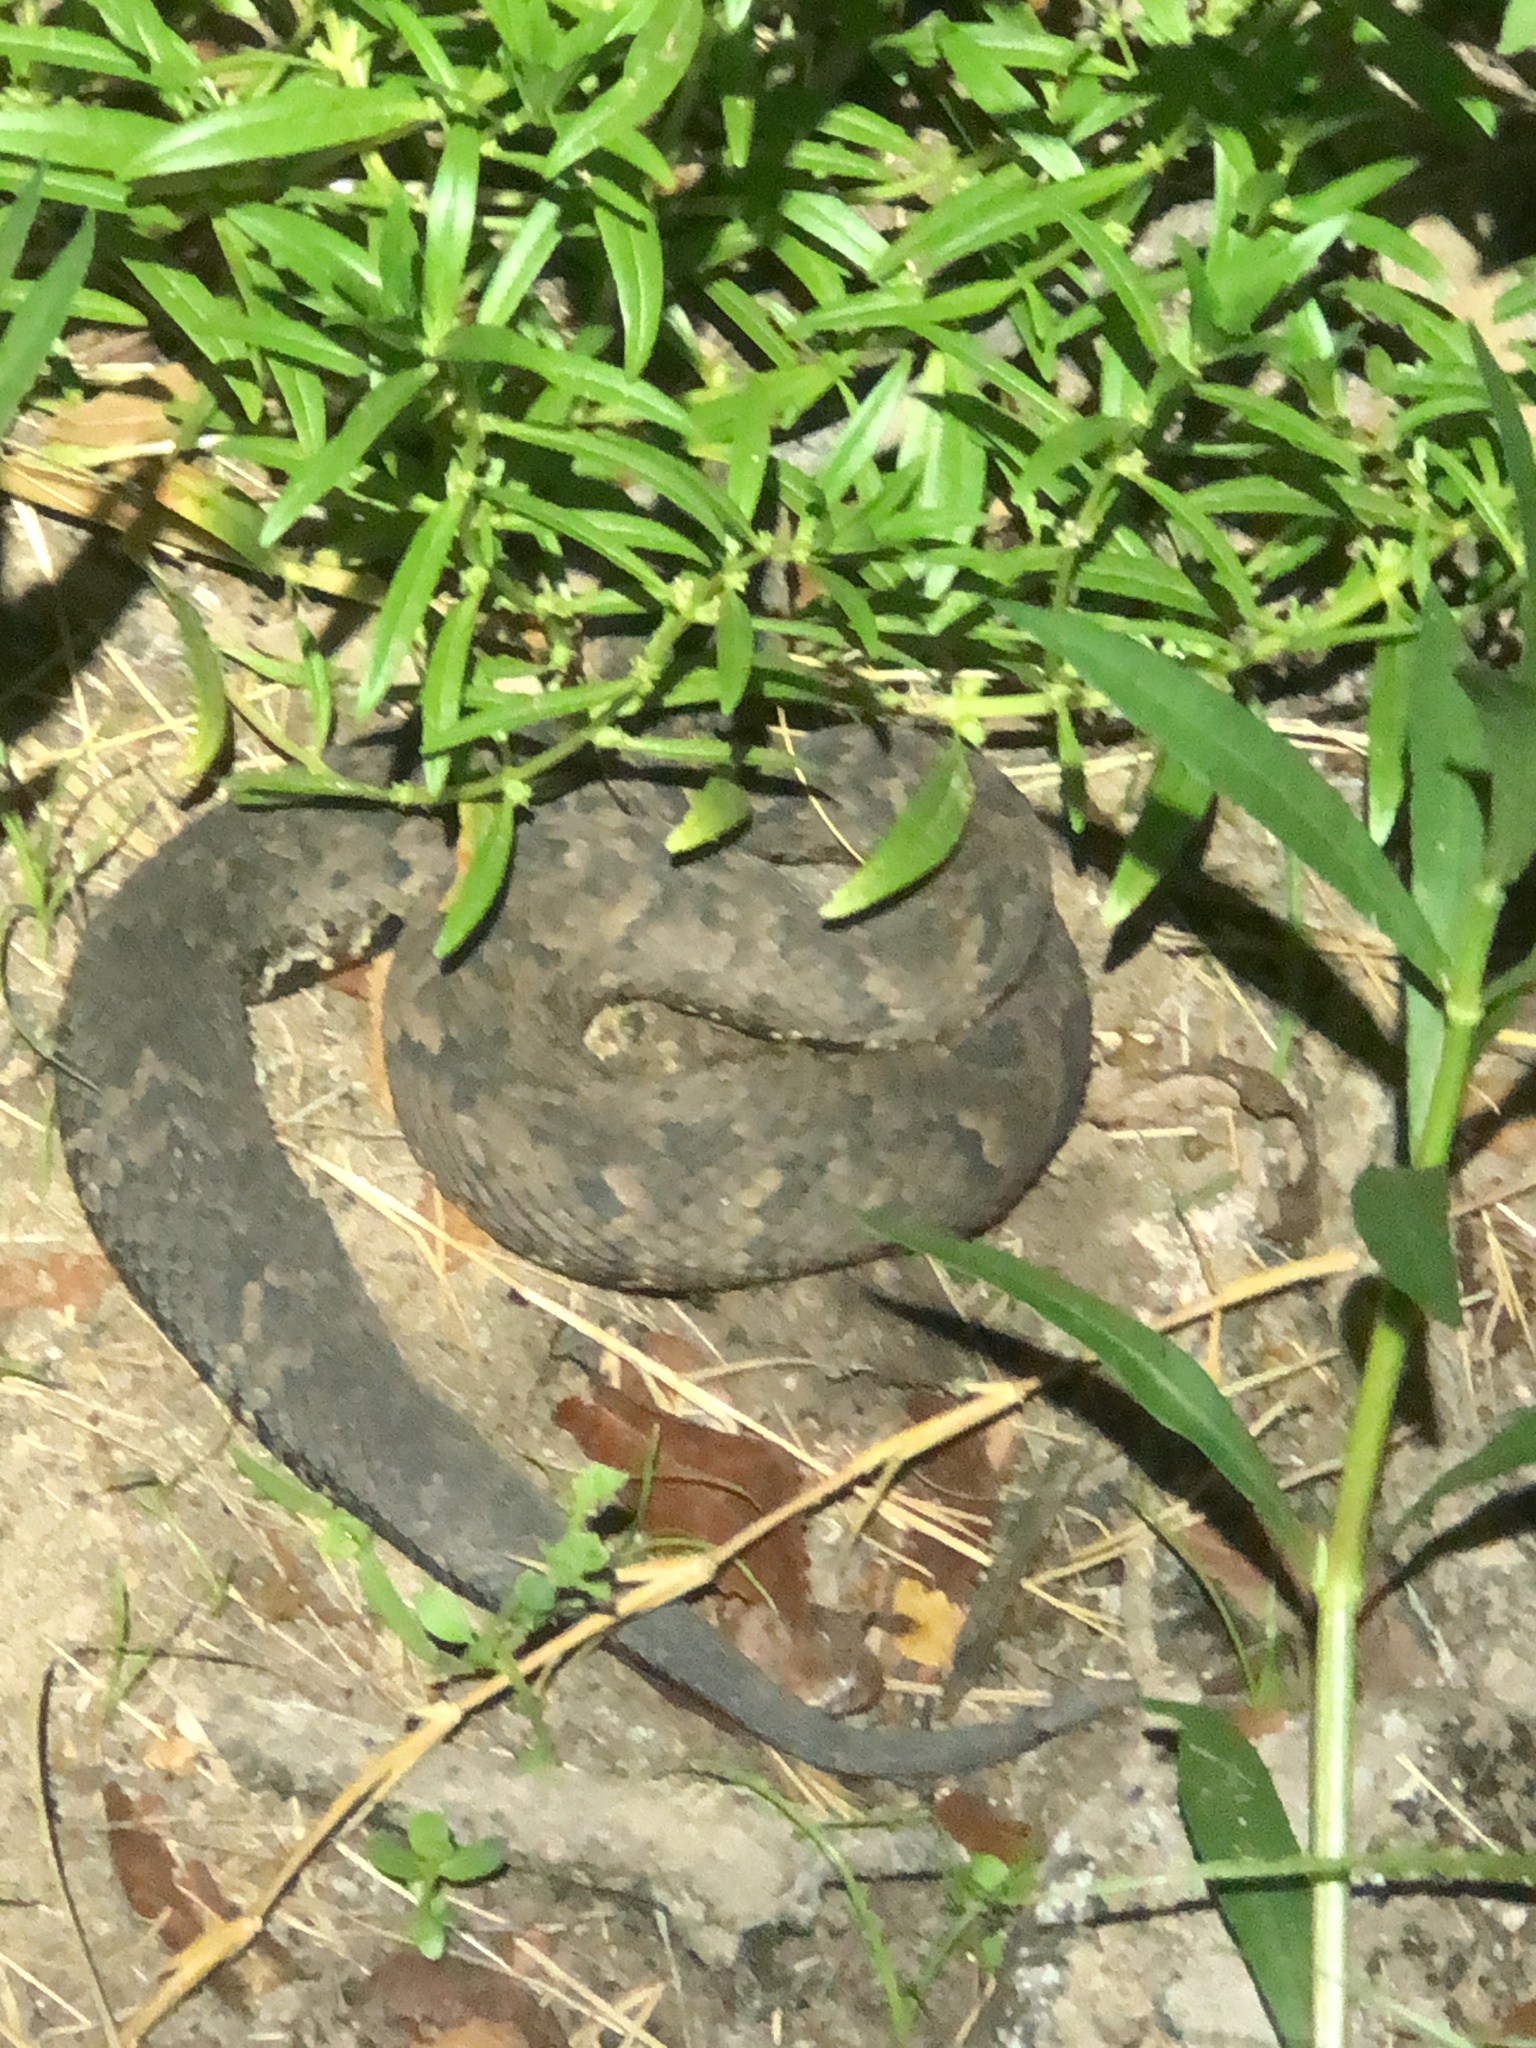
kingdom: Animalia
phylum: Chordata
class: Squamata
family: Viperidae
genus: Agkistrodon
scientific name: Agkistrodon piscivorus
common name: Cottonmouth
